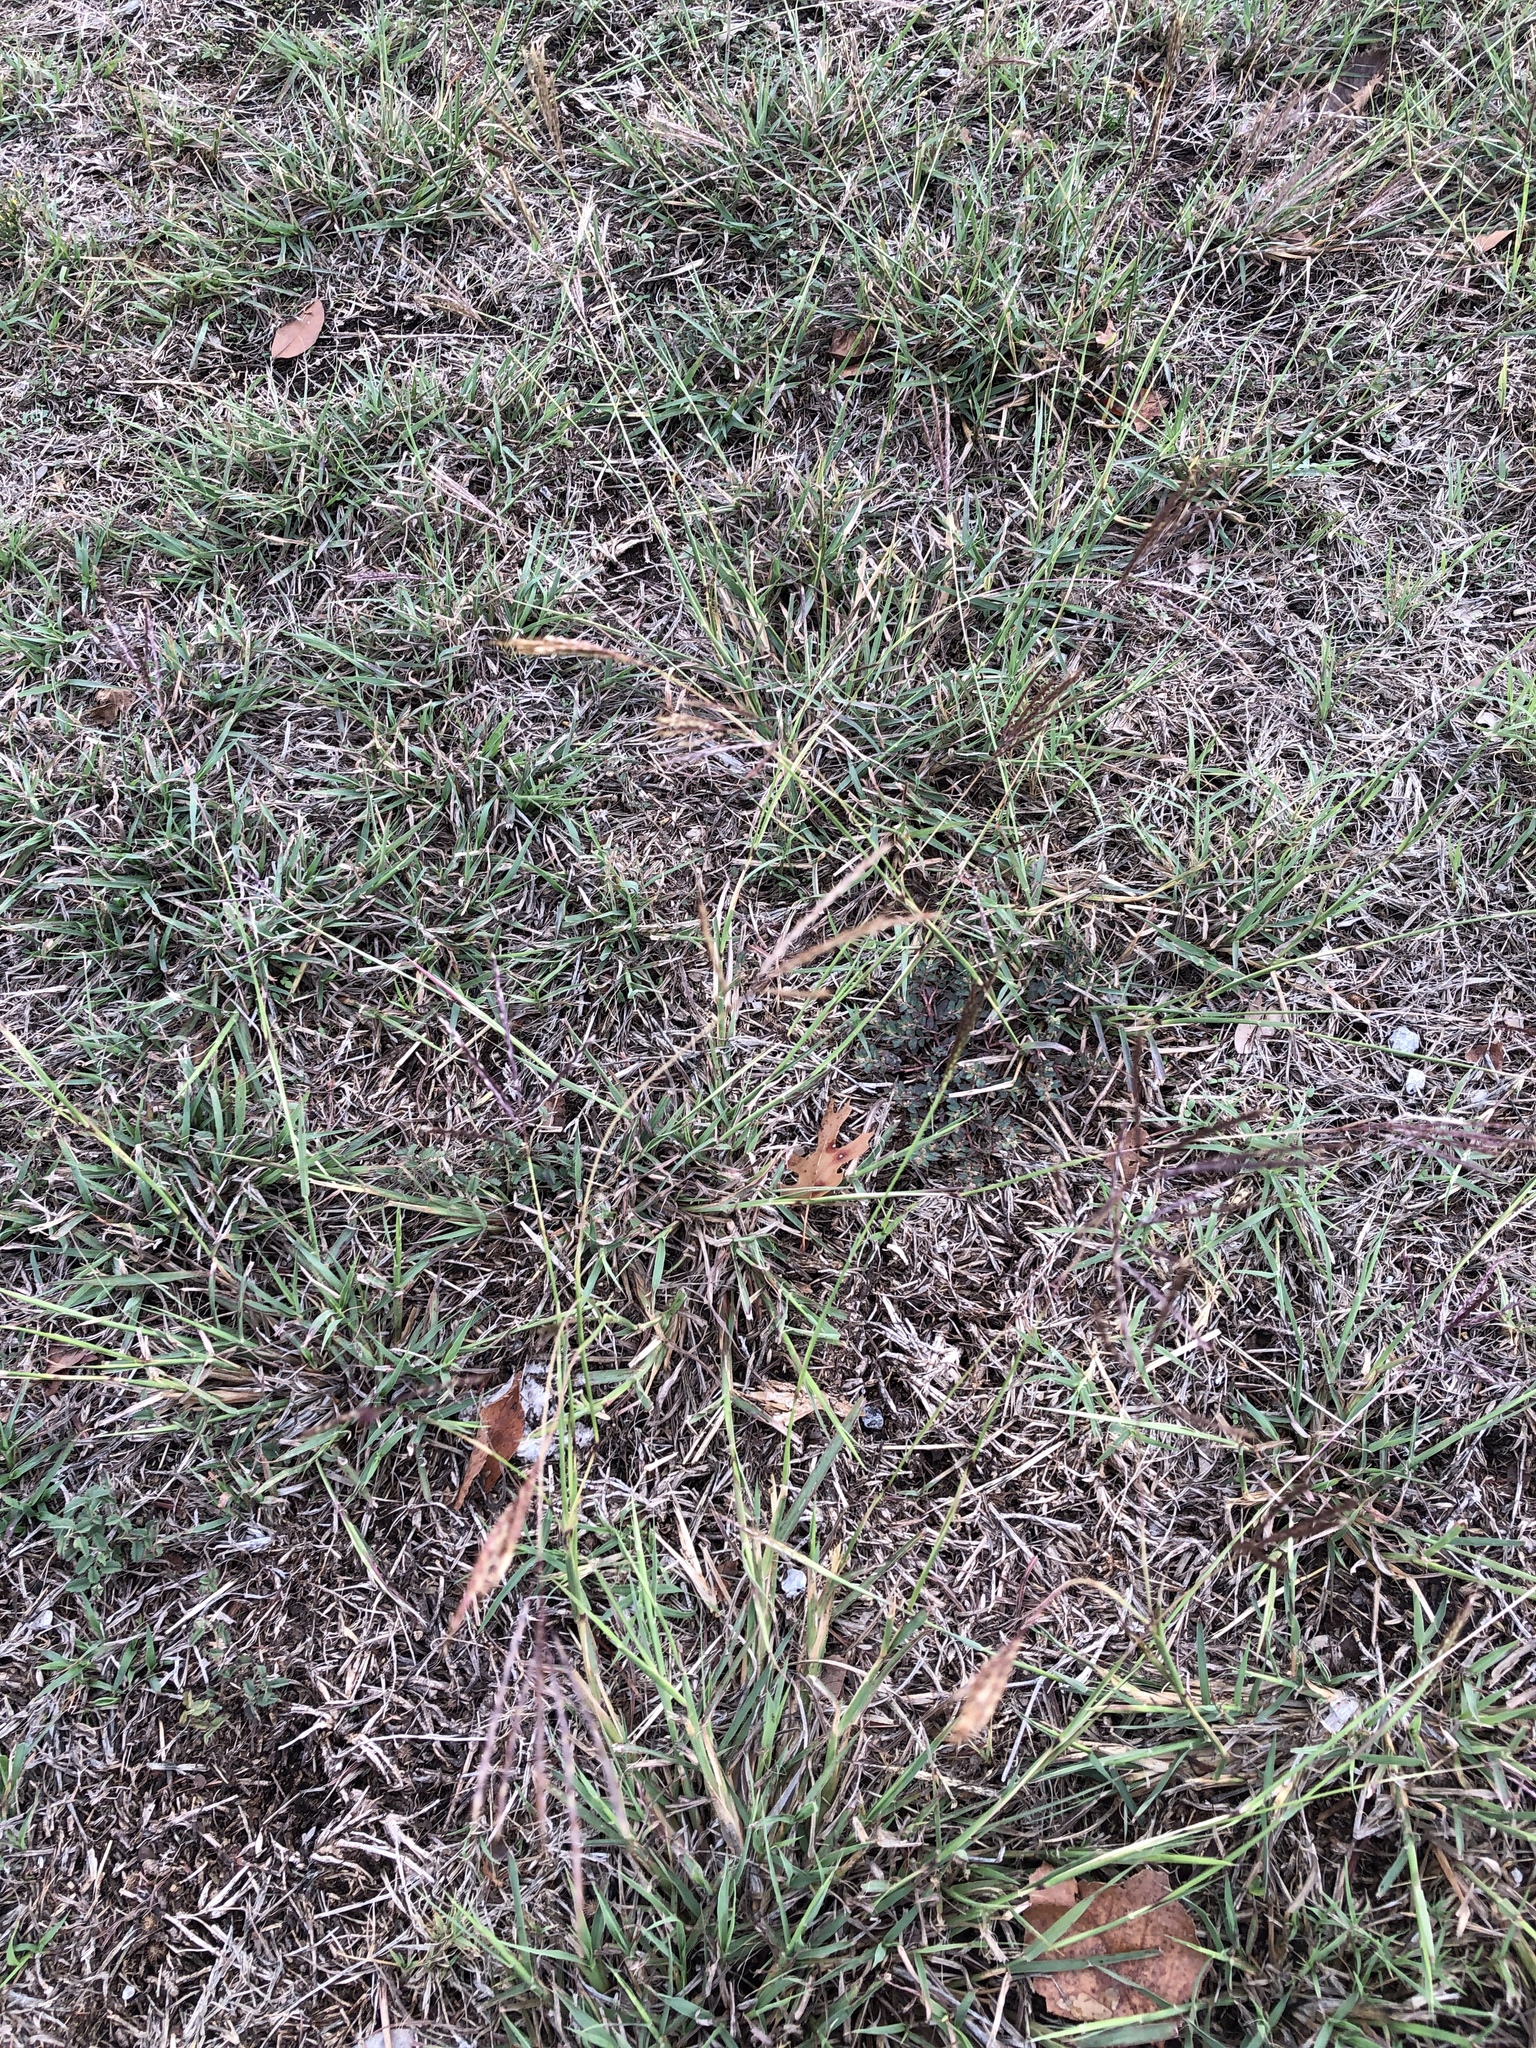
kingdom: Plantae
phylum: Tracheophyta
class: Liliopsida
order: Poales
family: Poaceae
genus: Bothriochloa
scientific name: Bothriochloa ischaemum
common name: Yellow bluestem
